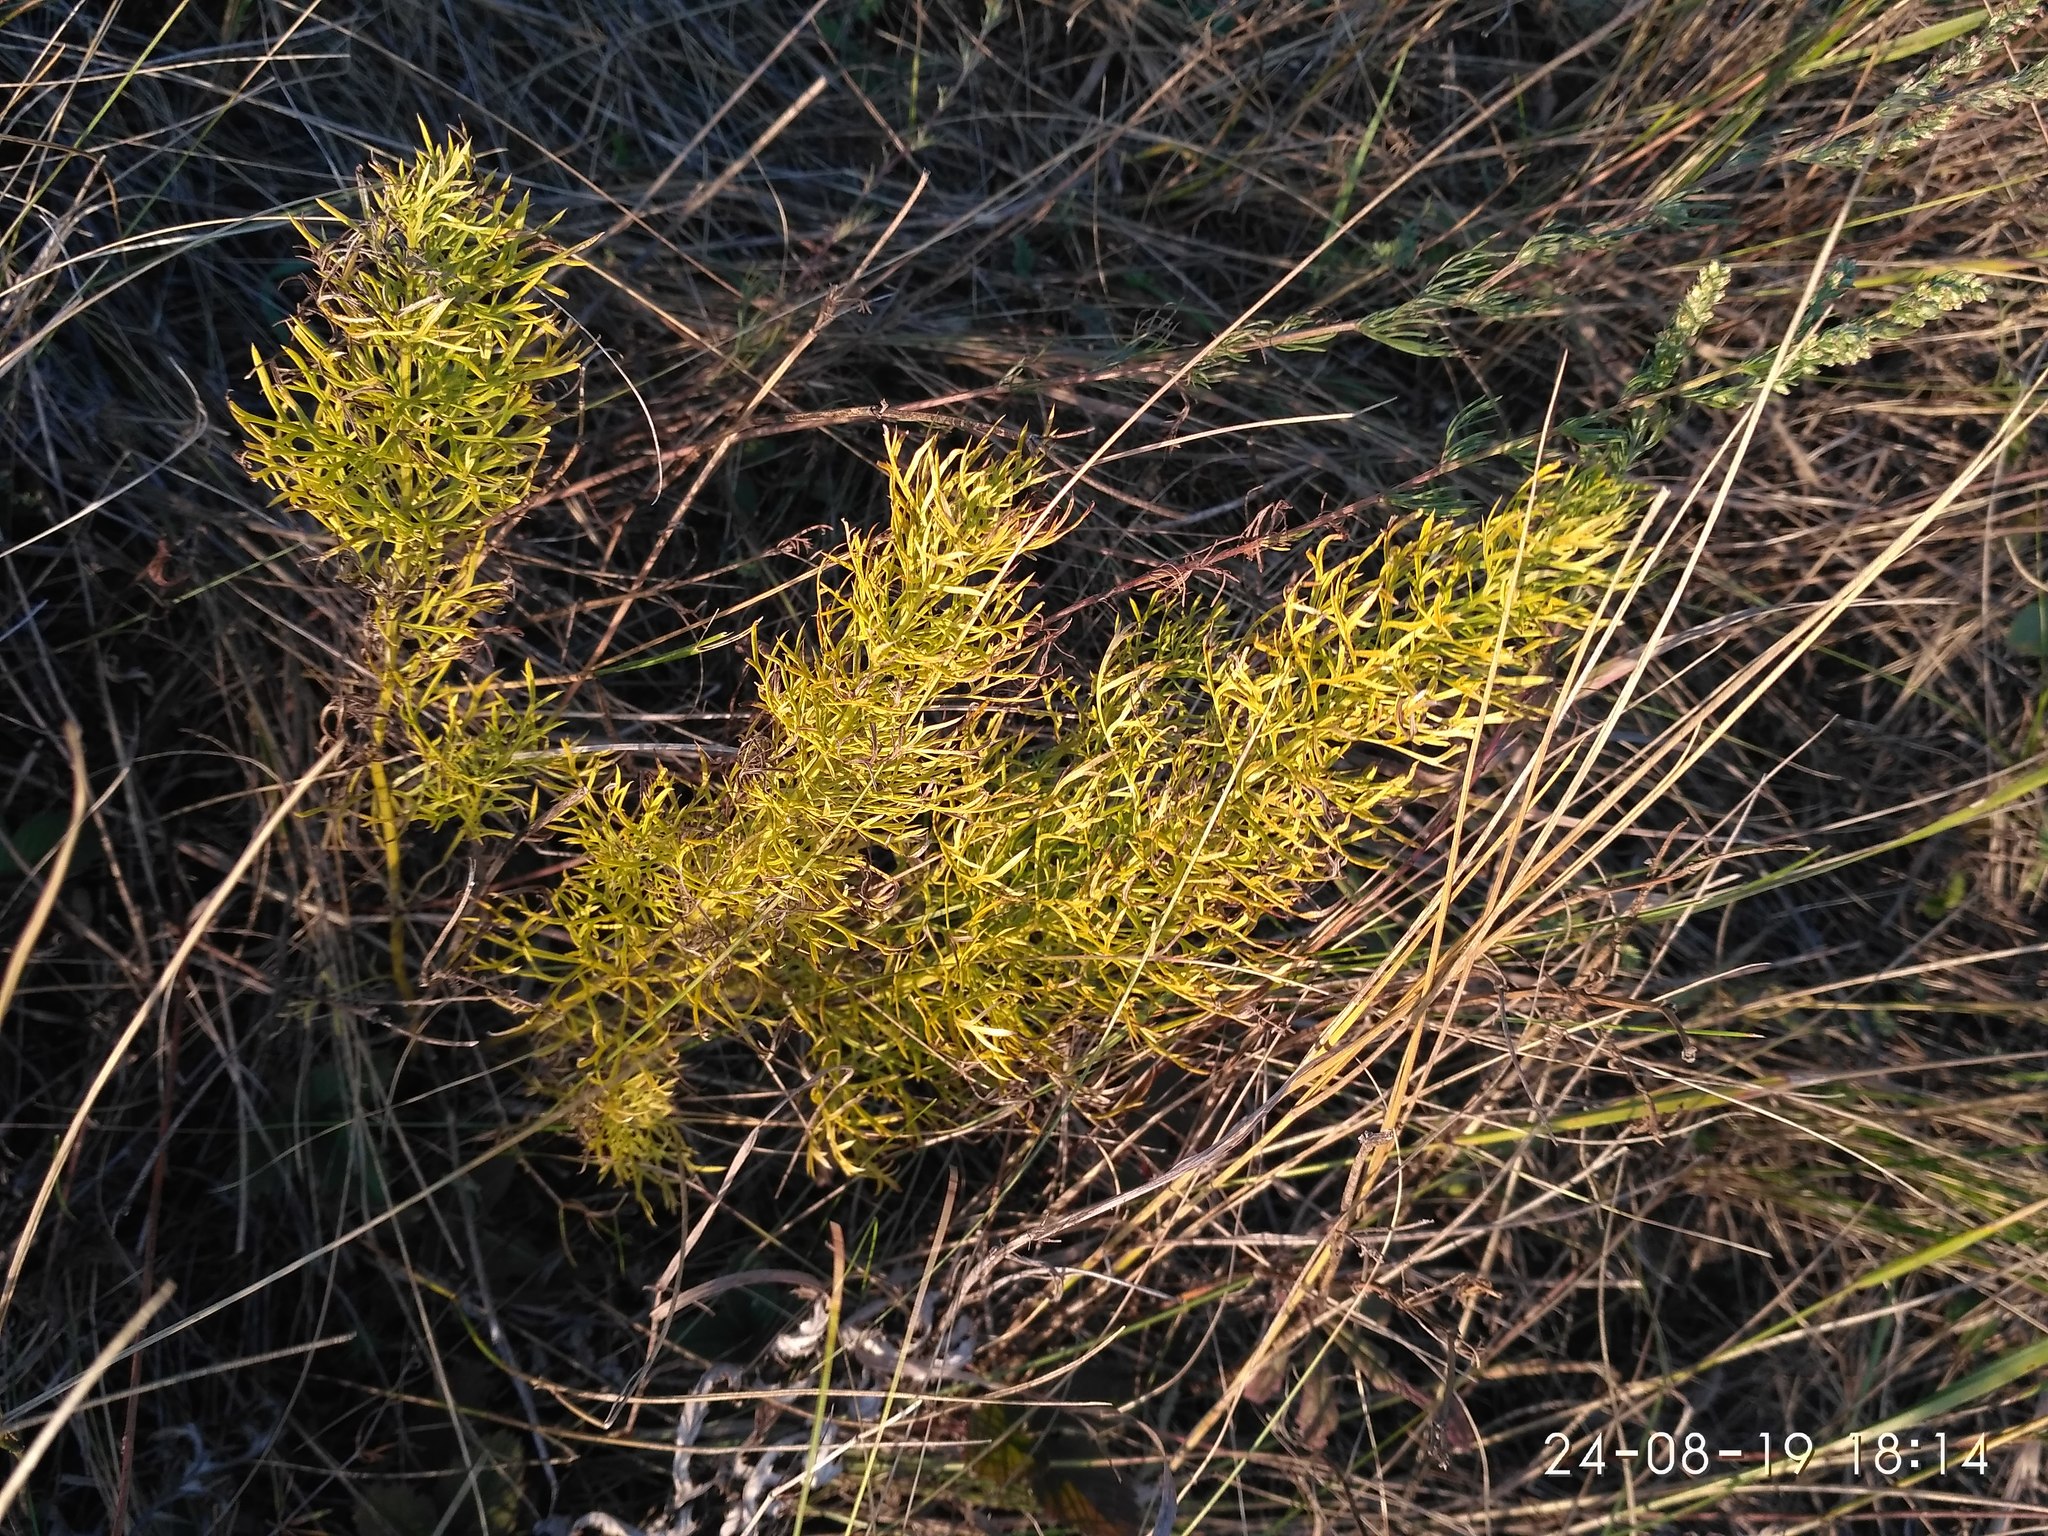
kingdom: Plantae
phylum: Tracheophyta
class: Magnoliopsida
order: Ranunculales
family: Ranunculaceae
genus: Adonis
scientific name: Adonis vernalis
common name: Yellow pheasants-eye
